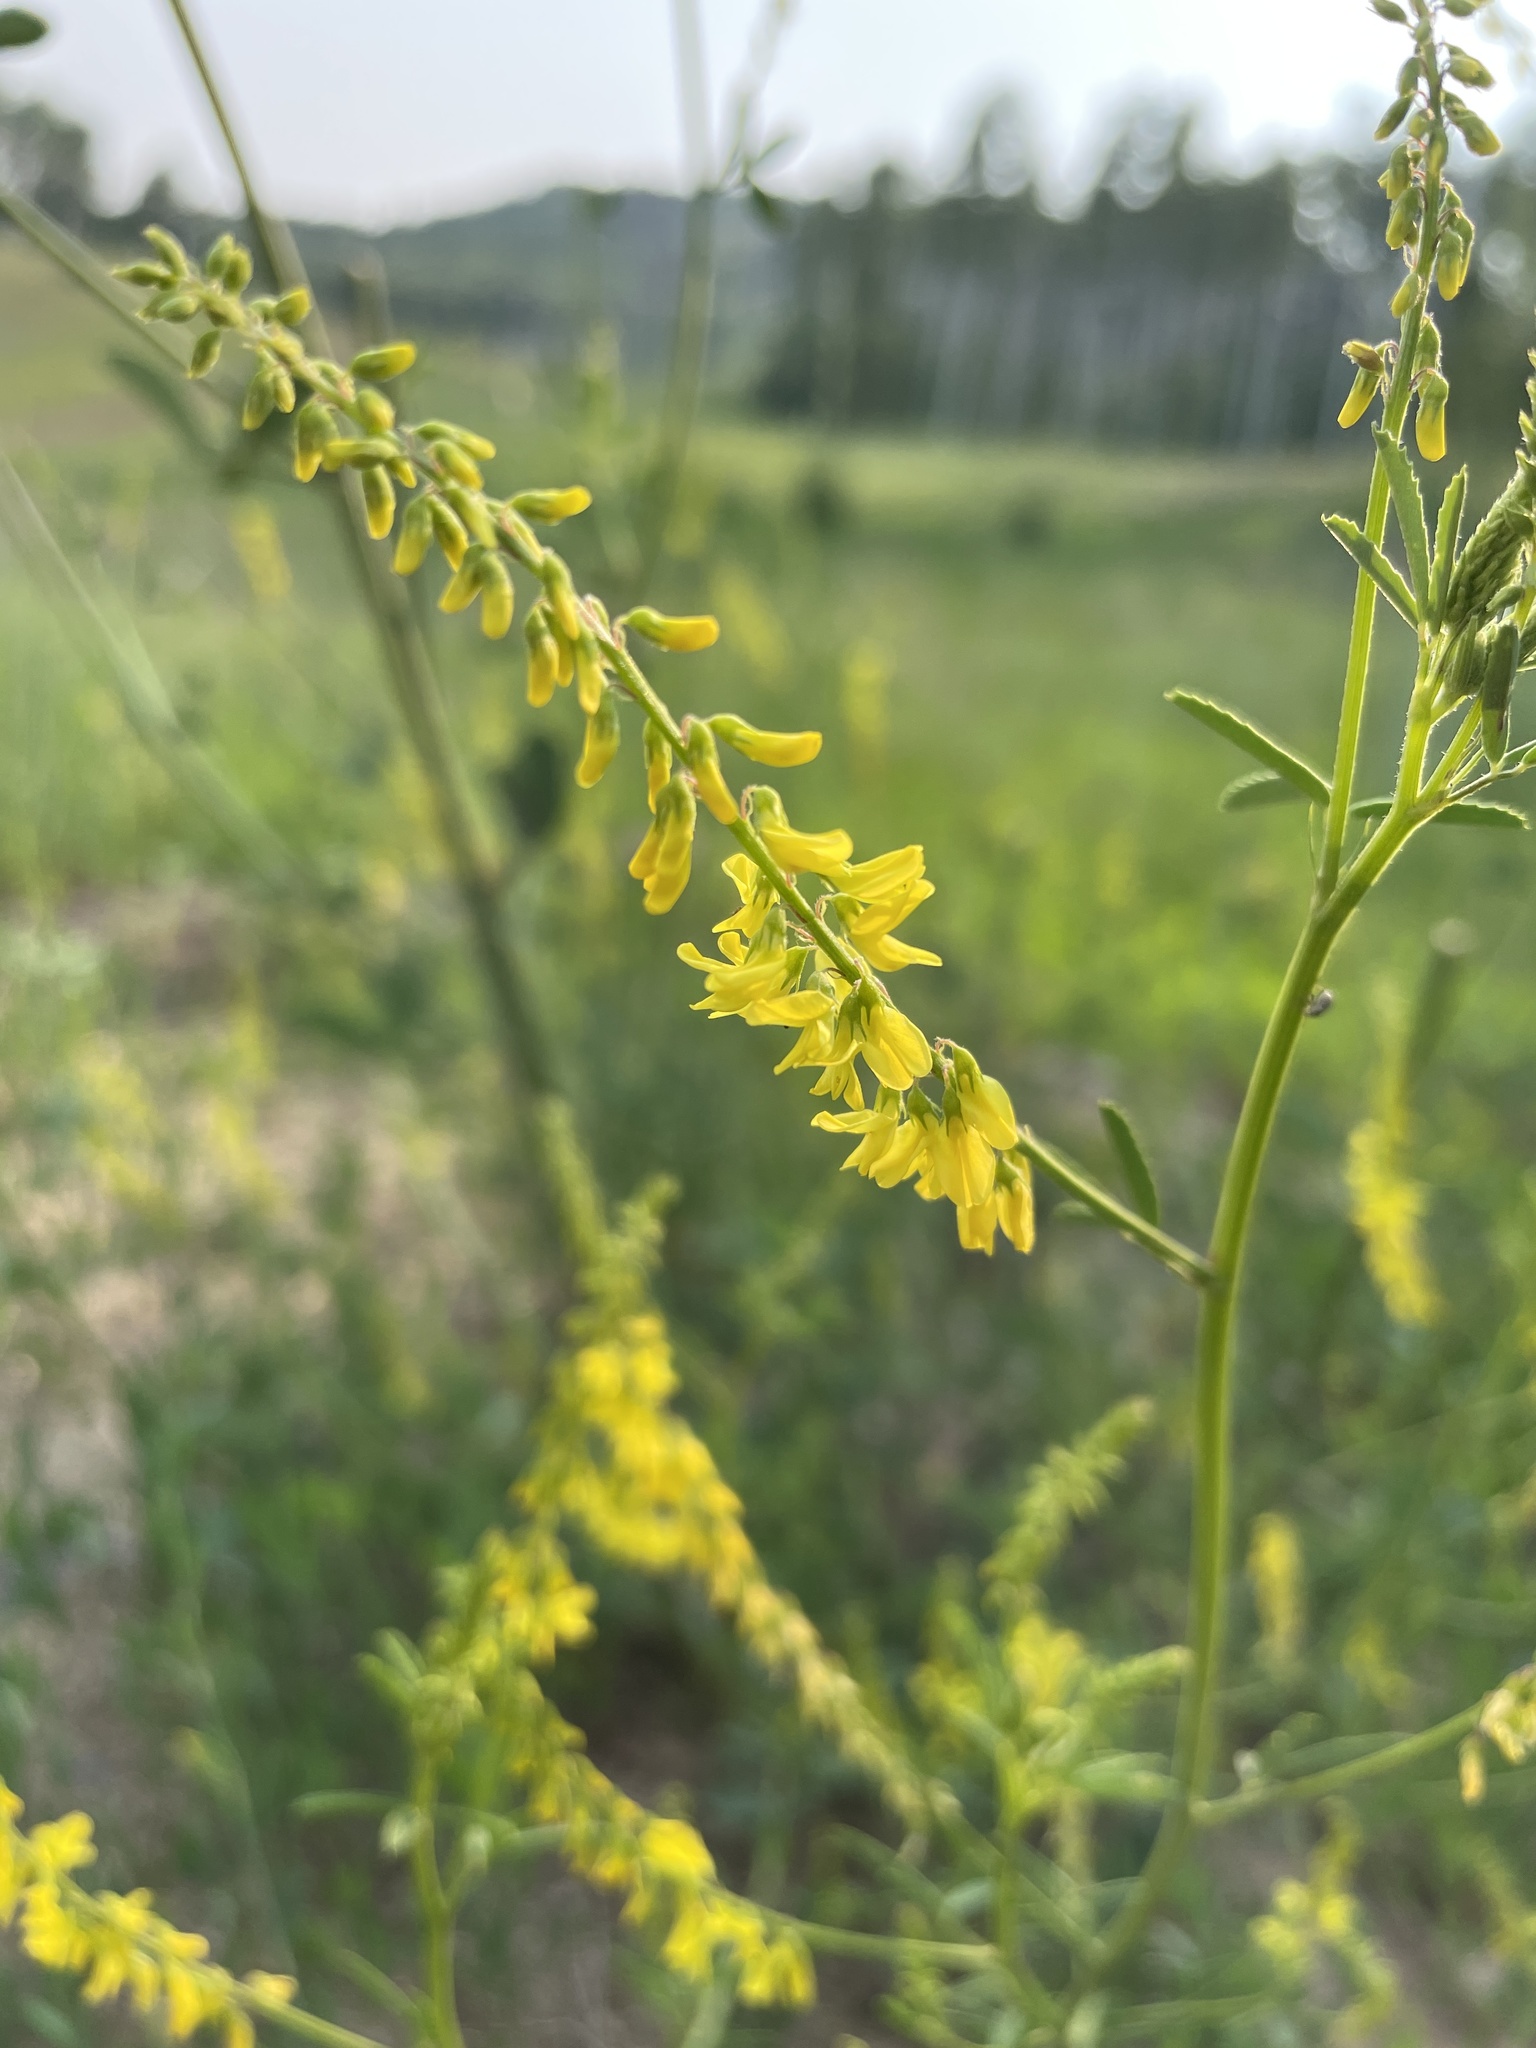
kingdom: Plantae
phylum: Tracheophyta
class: Magnoliopsida
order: Fabales
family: Fabaceae
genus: Melilotus
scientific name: Melilotus officinalis
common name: Sweetclover
